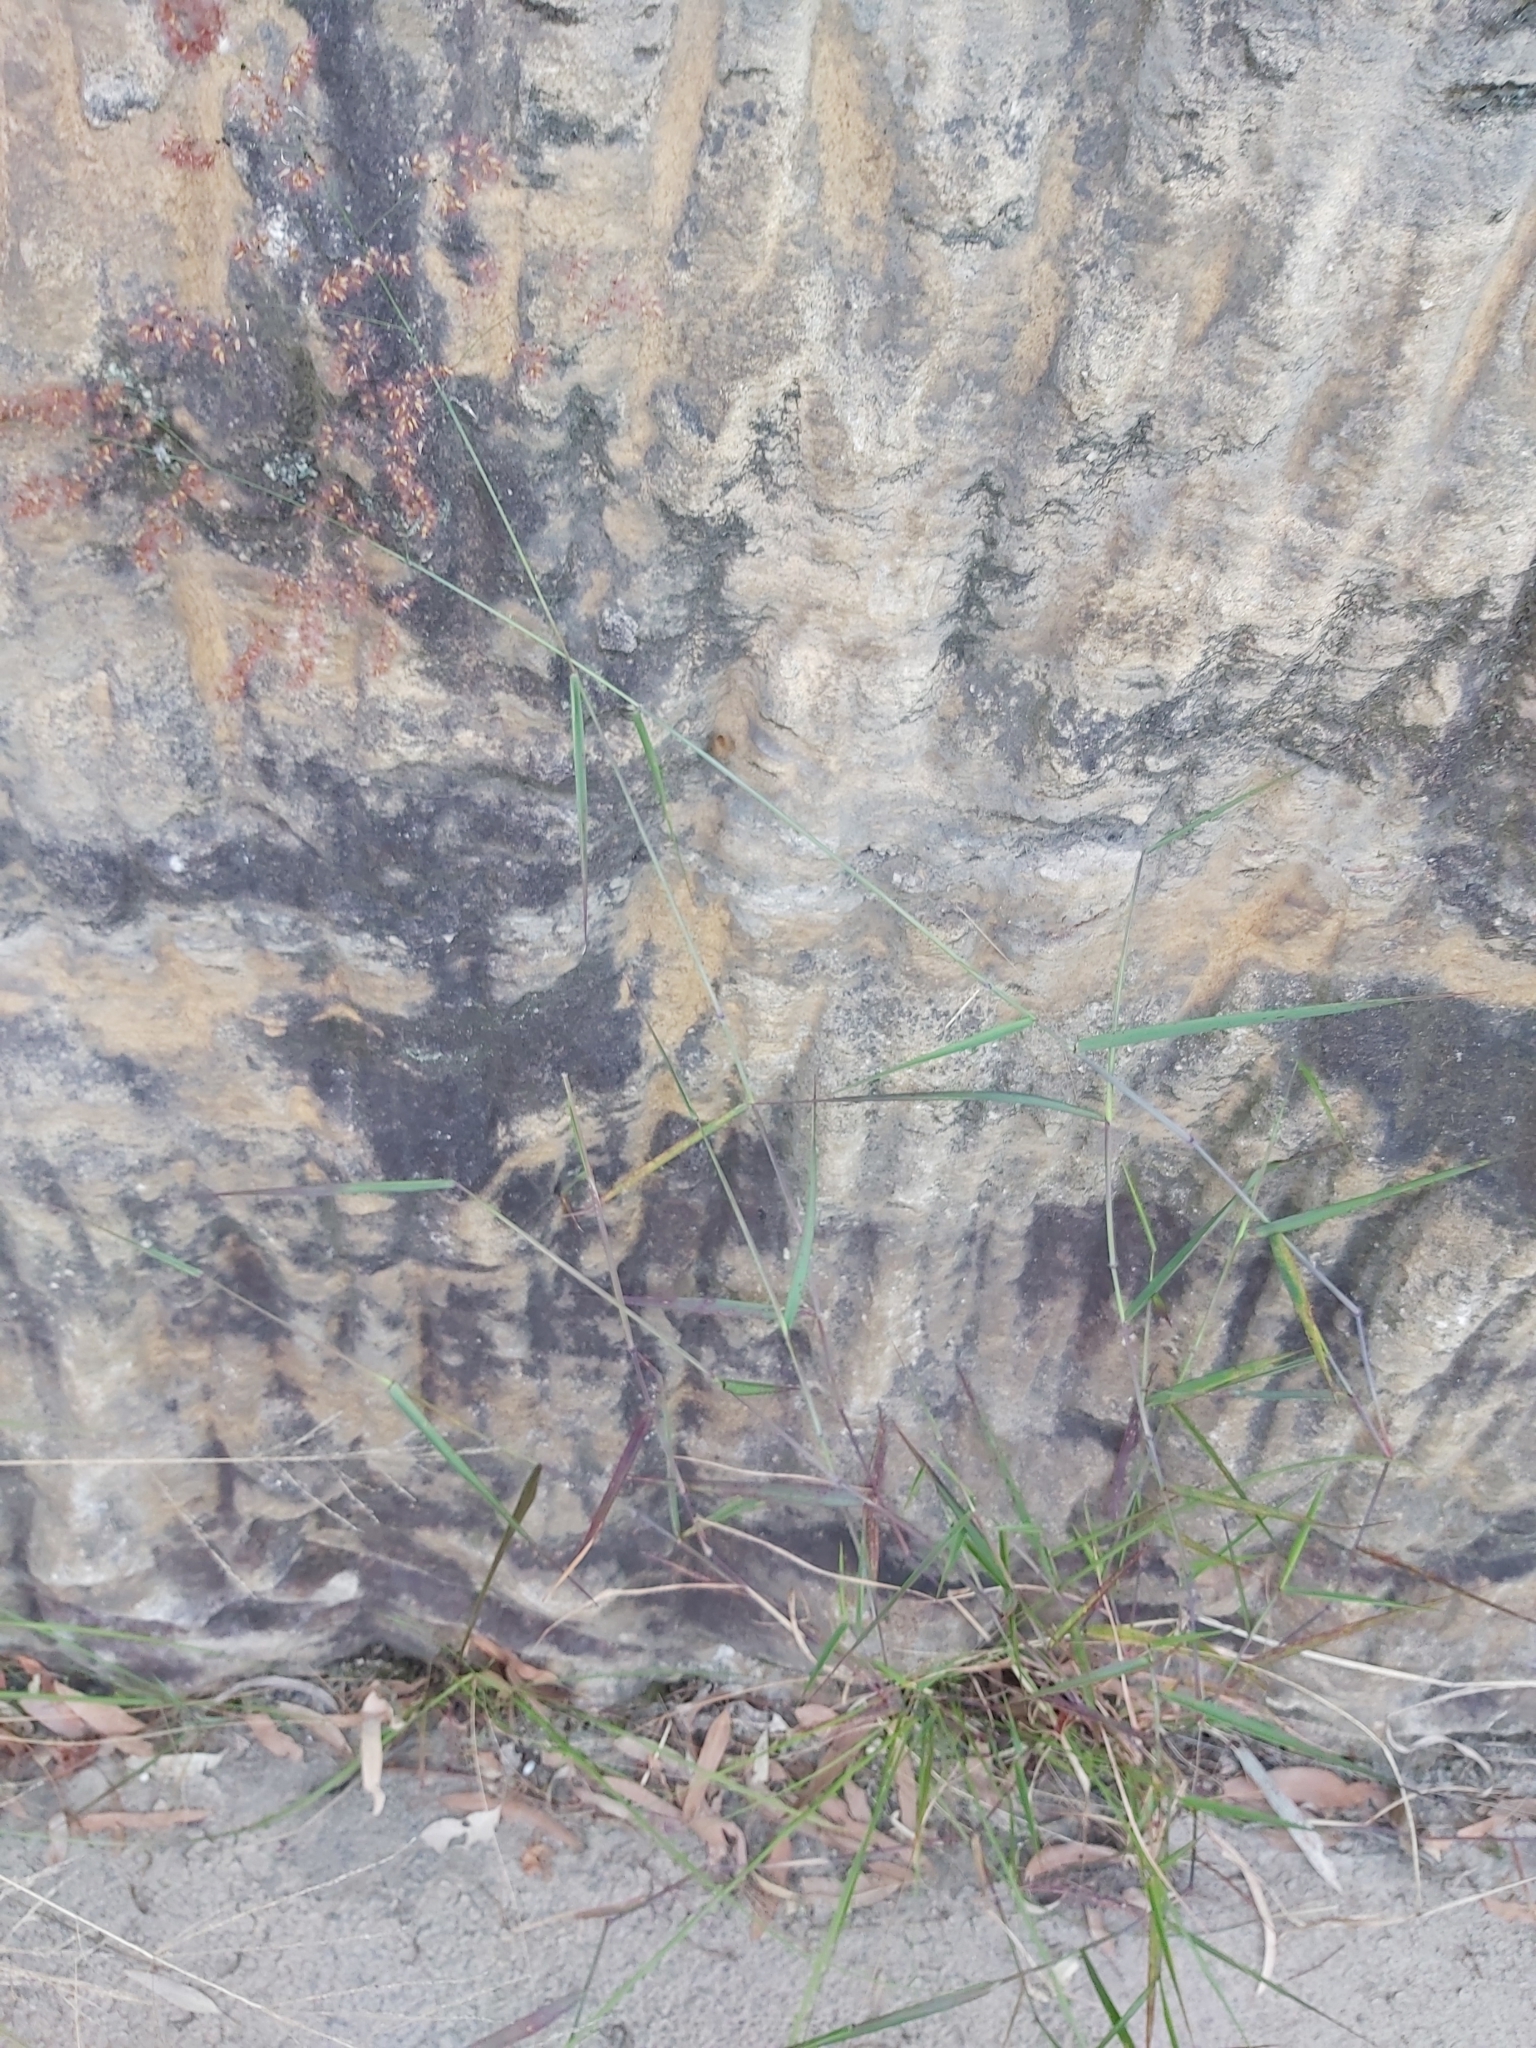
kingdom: Plantae
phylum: Tracheophyta
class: Liliopsida
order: Poales
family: Poaceae
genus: Melinis
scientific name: Melinis repens
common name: Rose natal grass
